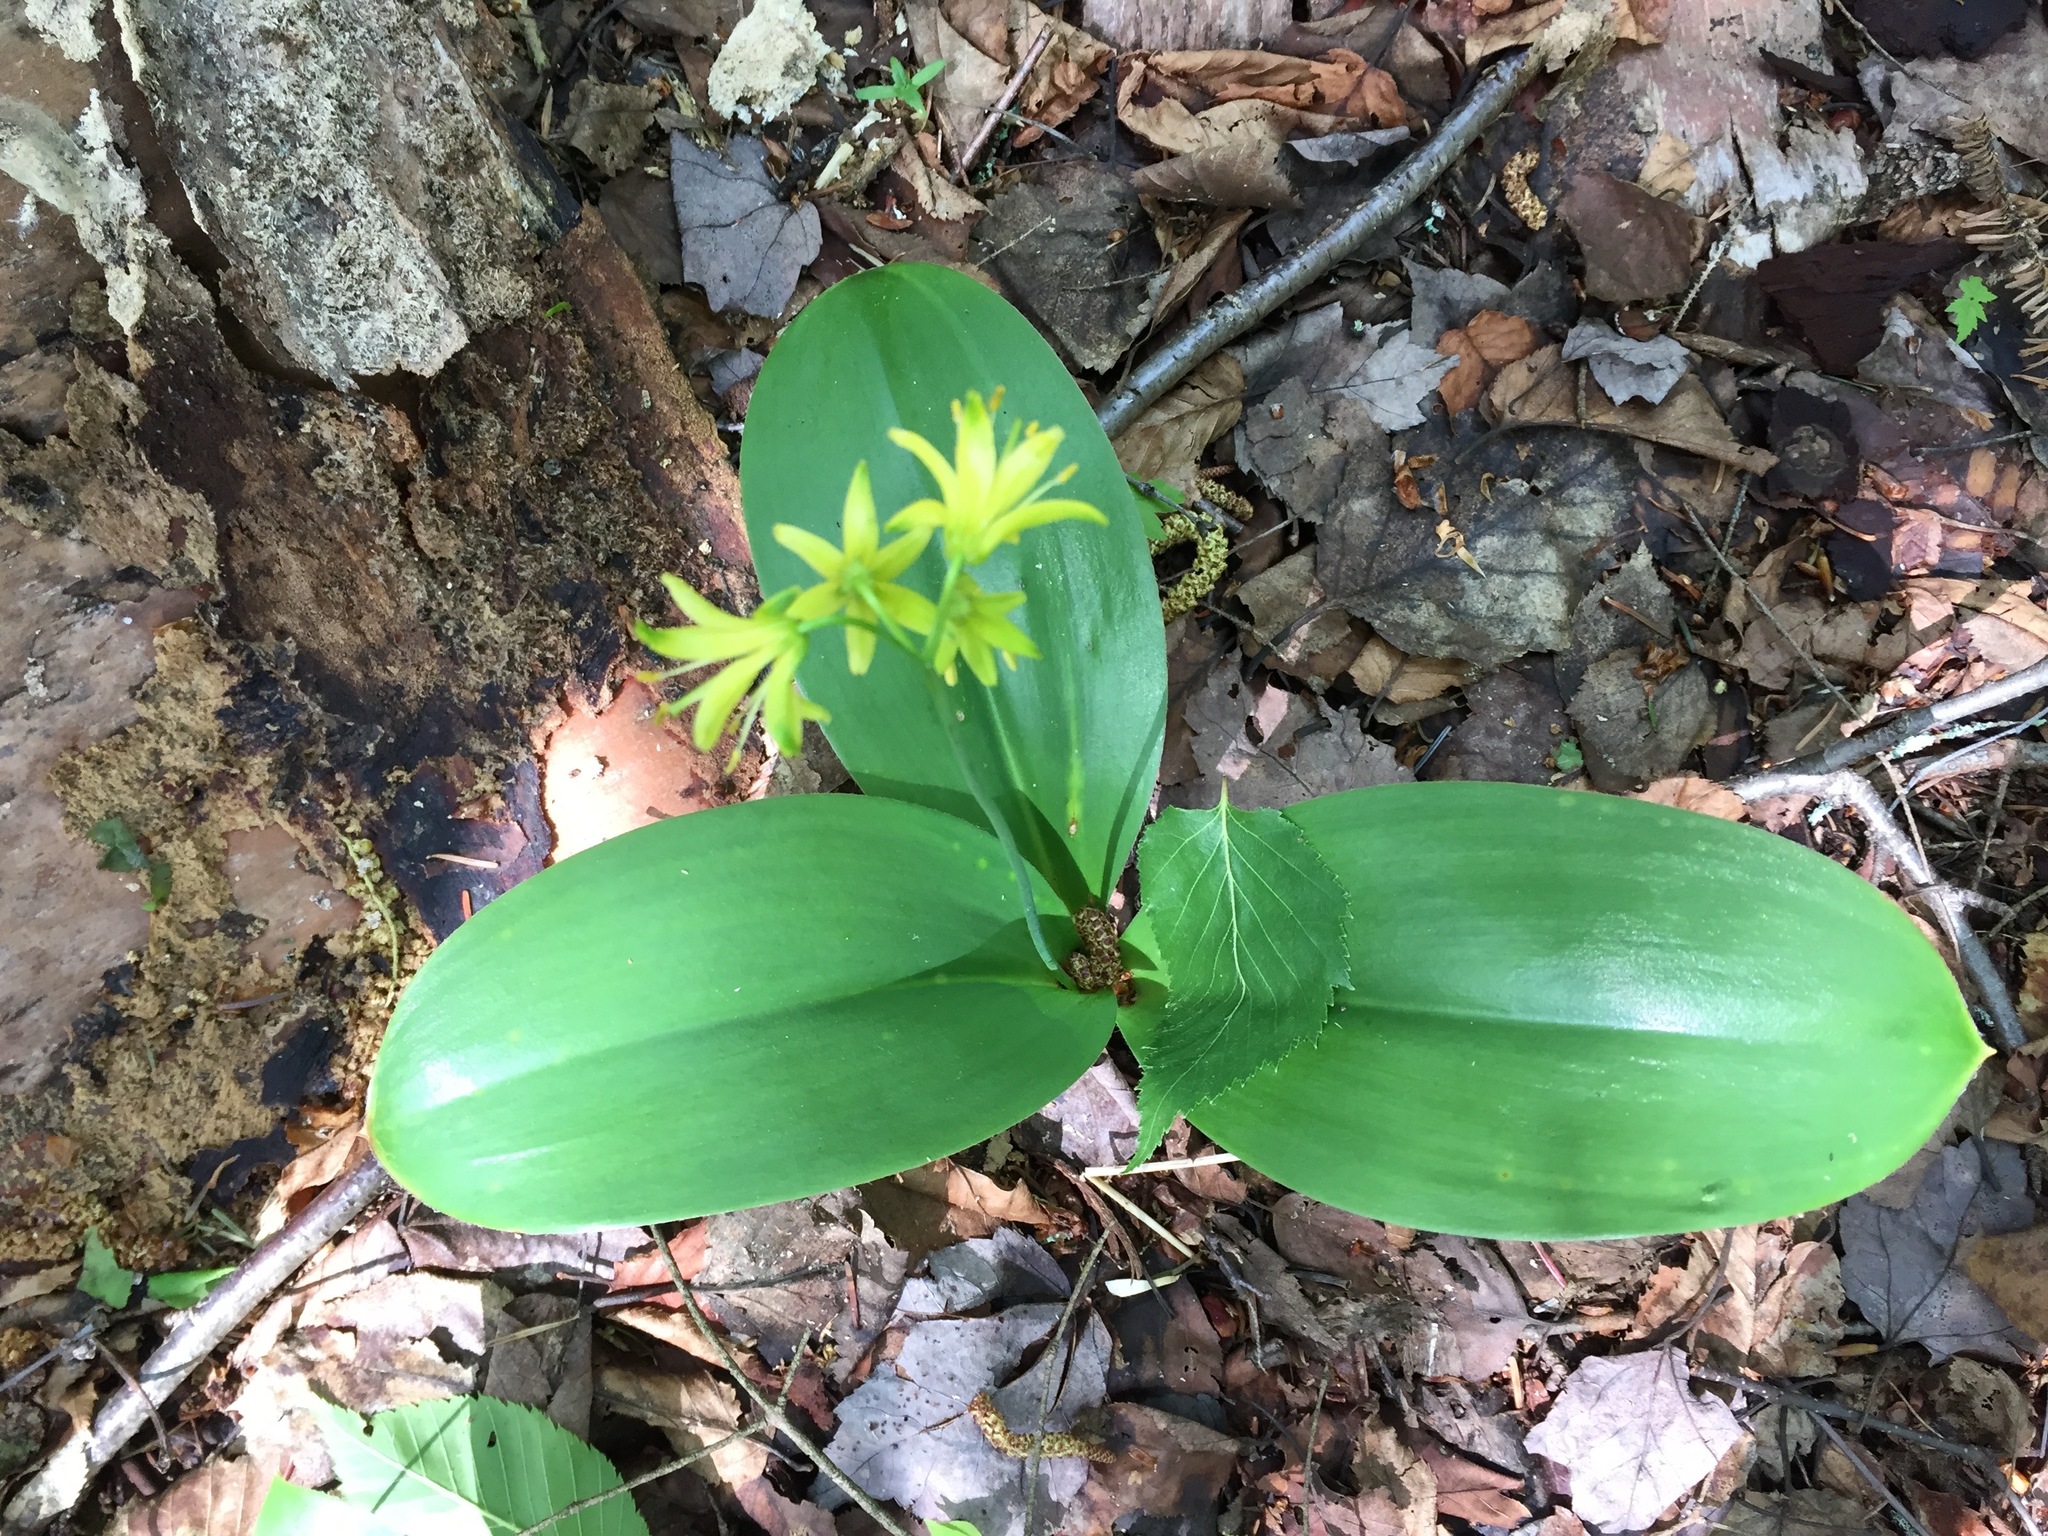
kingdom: Plantae
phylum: Tracheophyta
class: Liliopsida
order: Liliales
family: Liliaceae
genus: Clintonia
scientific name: Clintonia borealis
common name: Yellow clintonia
